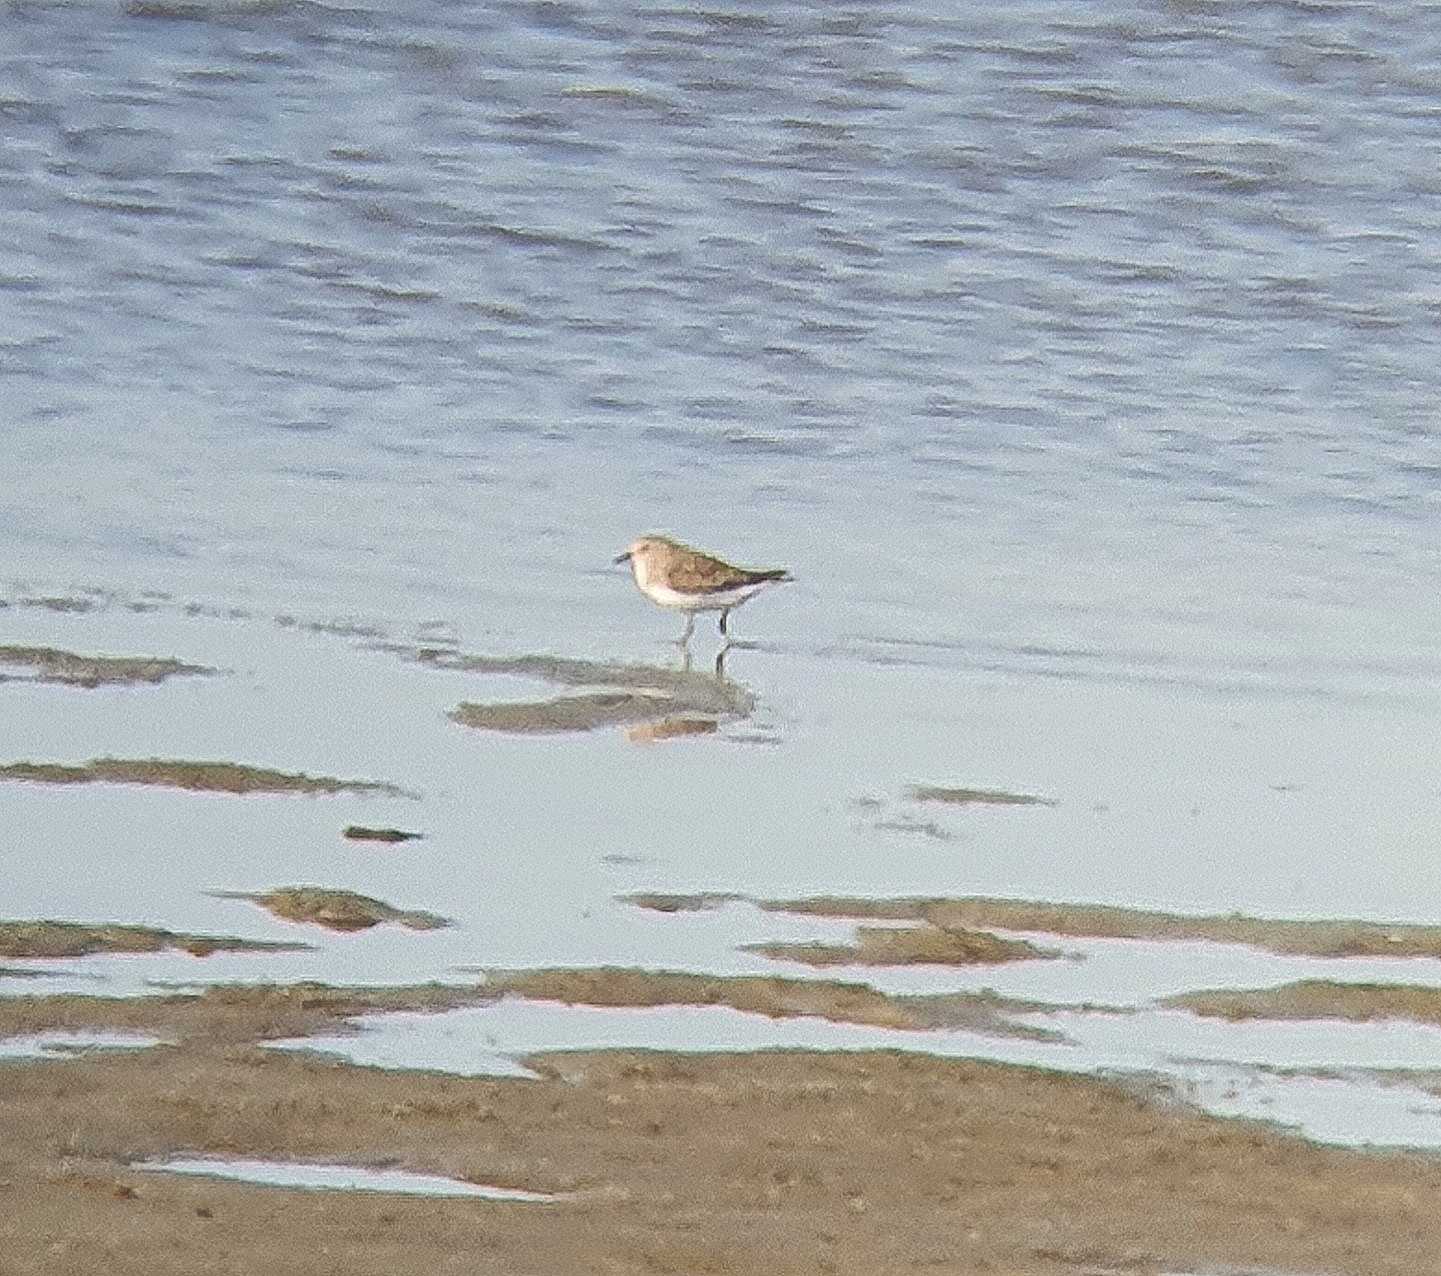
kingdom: Animalia
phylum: Chordata
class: Aves
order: Charadriiformes
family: Scolopacidae
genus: Calidris
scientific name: Calidris temminckii
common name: Temminck's stint
